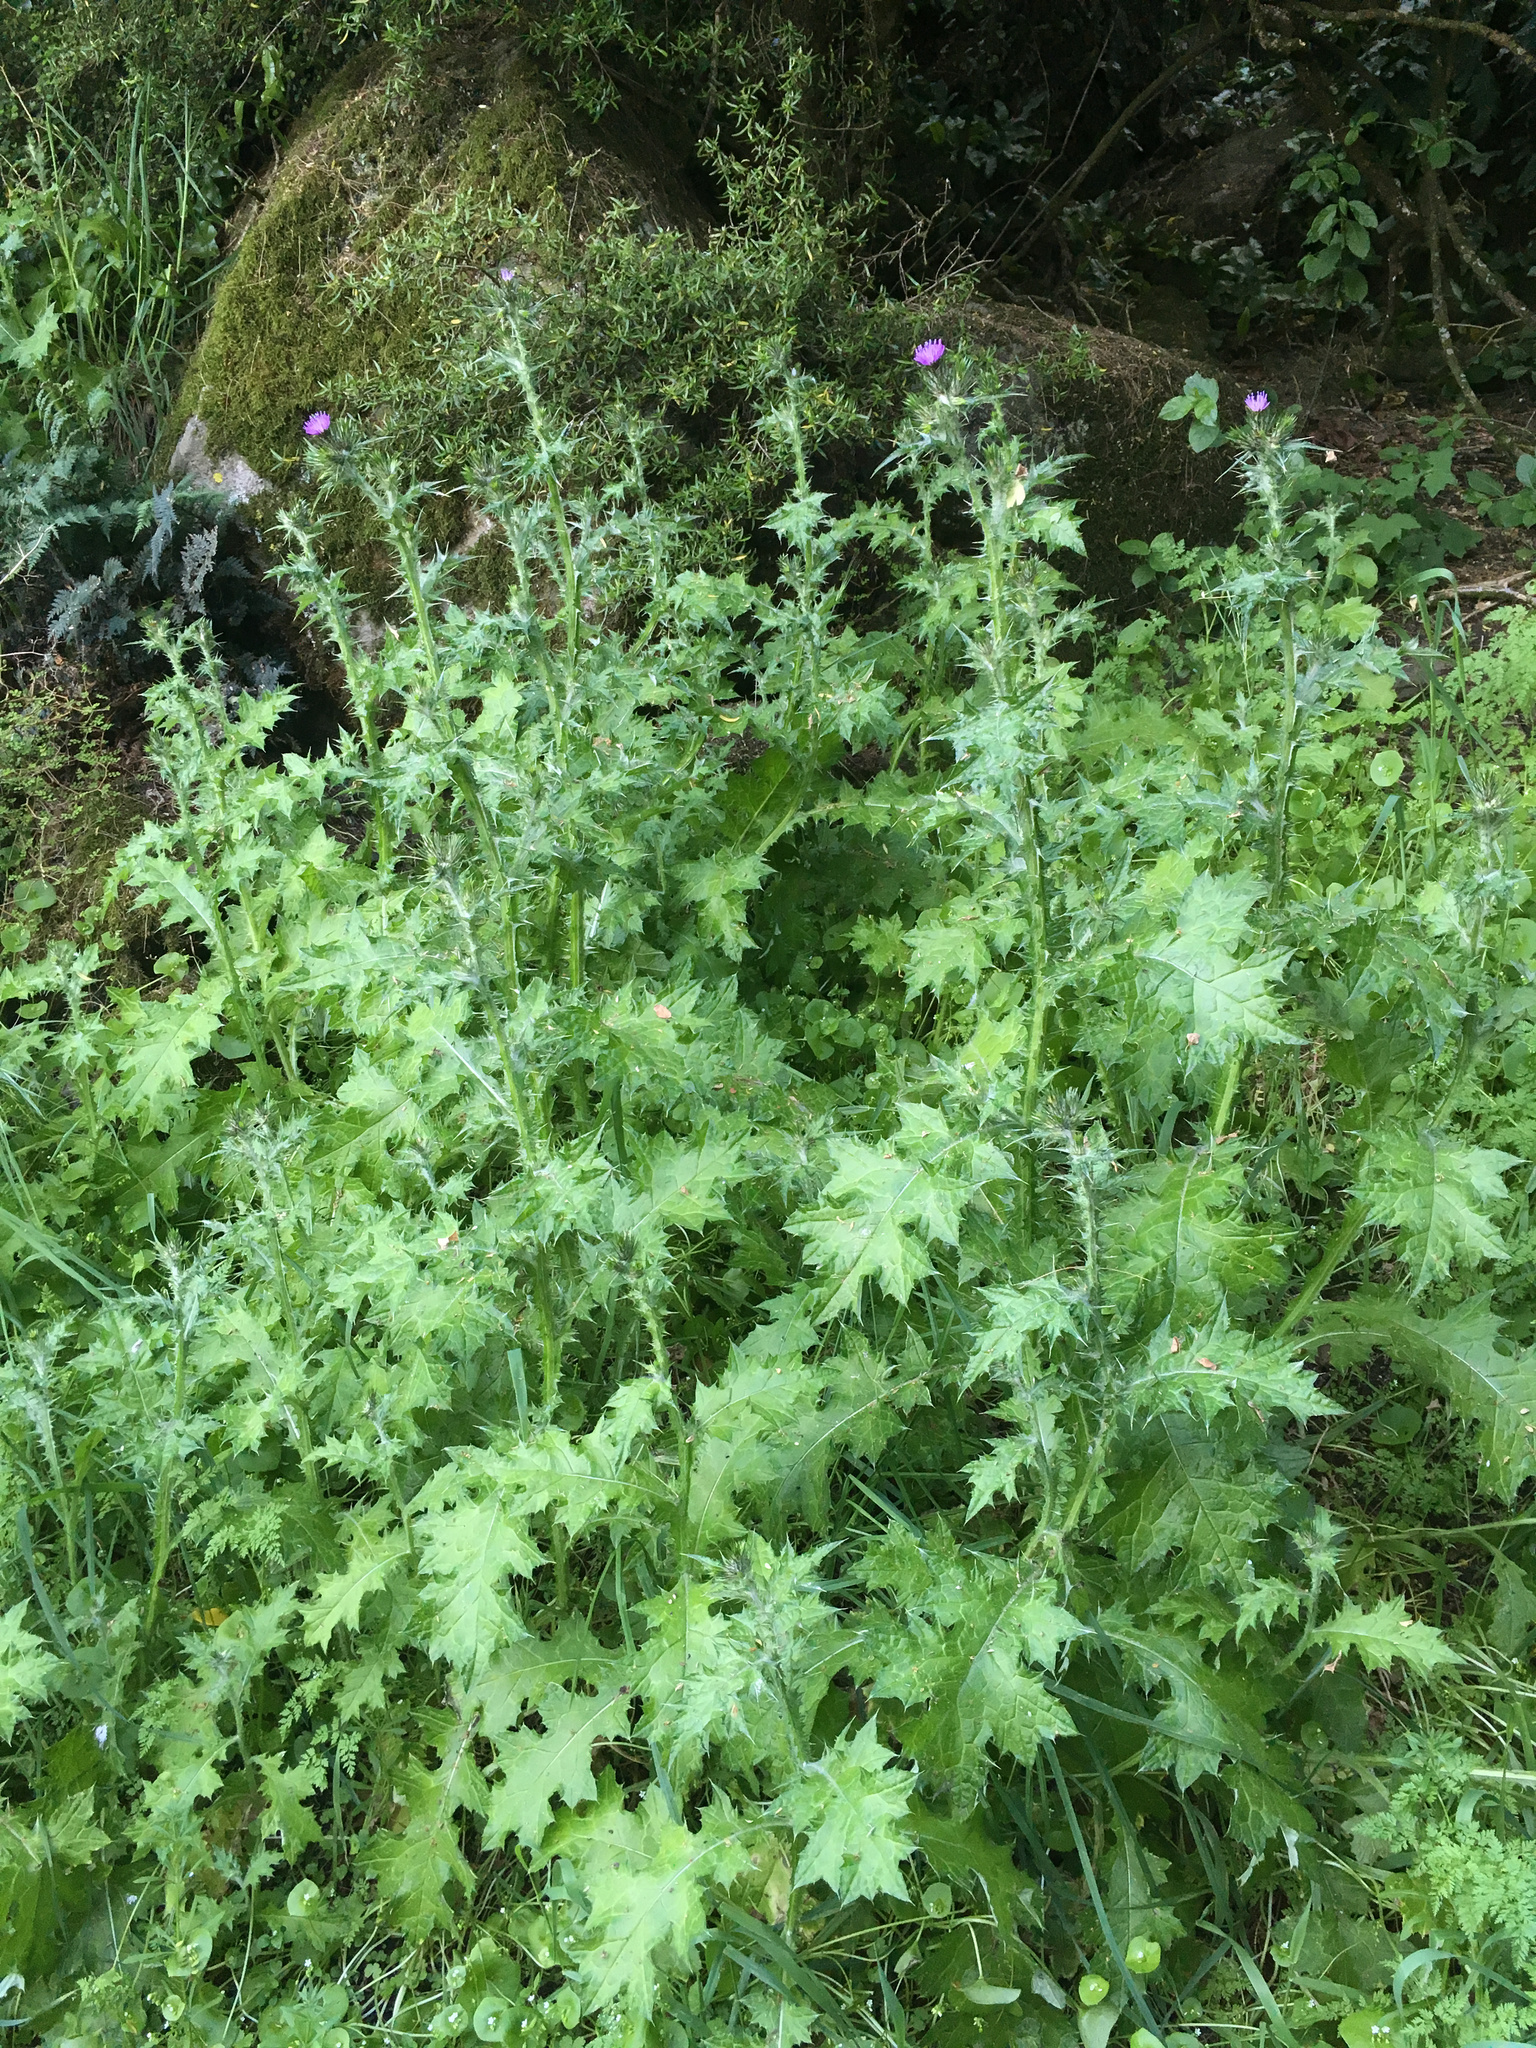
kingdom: Plantae
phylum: Tracheophyta
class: Magnoliopsida
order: Asterales
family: Asteraceae
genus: Carduus
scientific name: Carduus tenuiflorus
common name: Slender thistle
